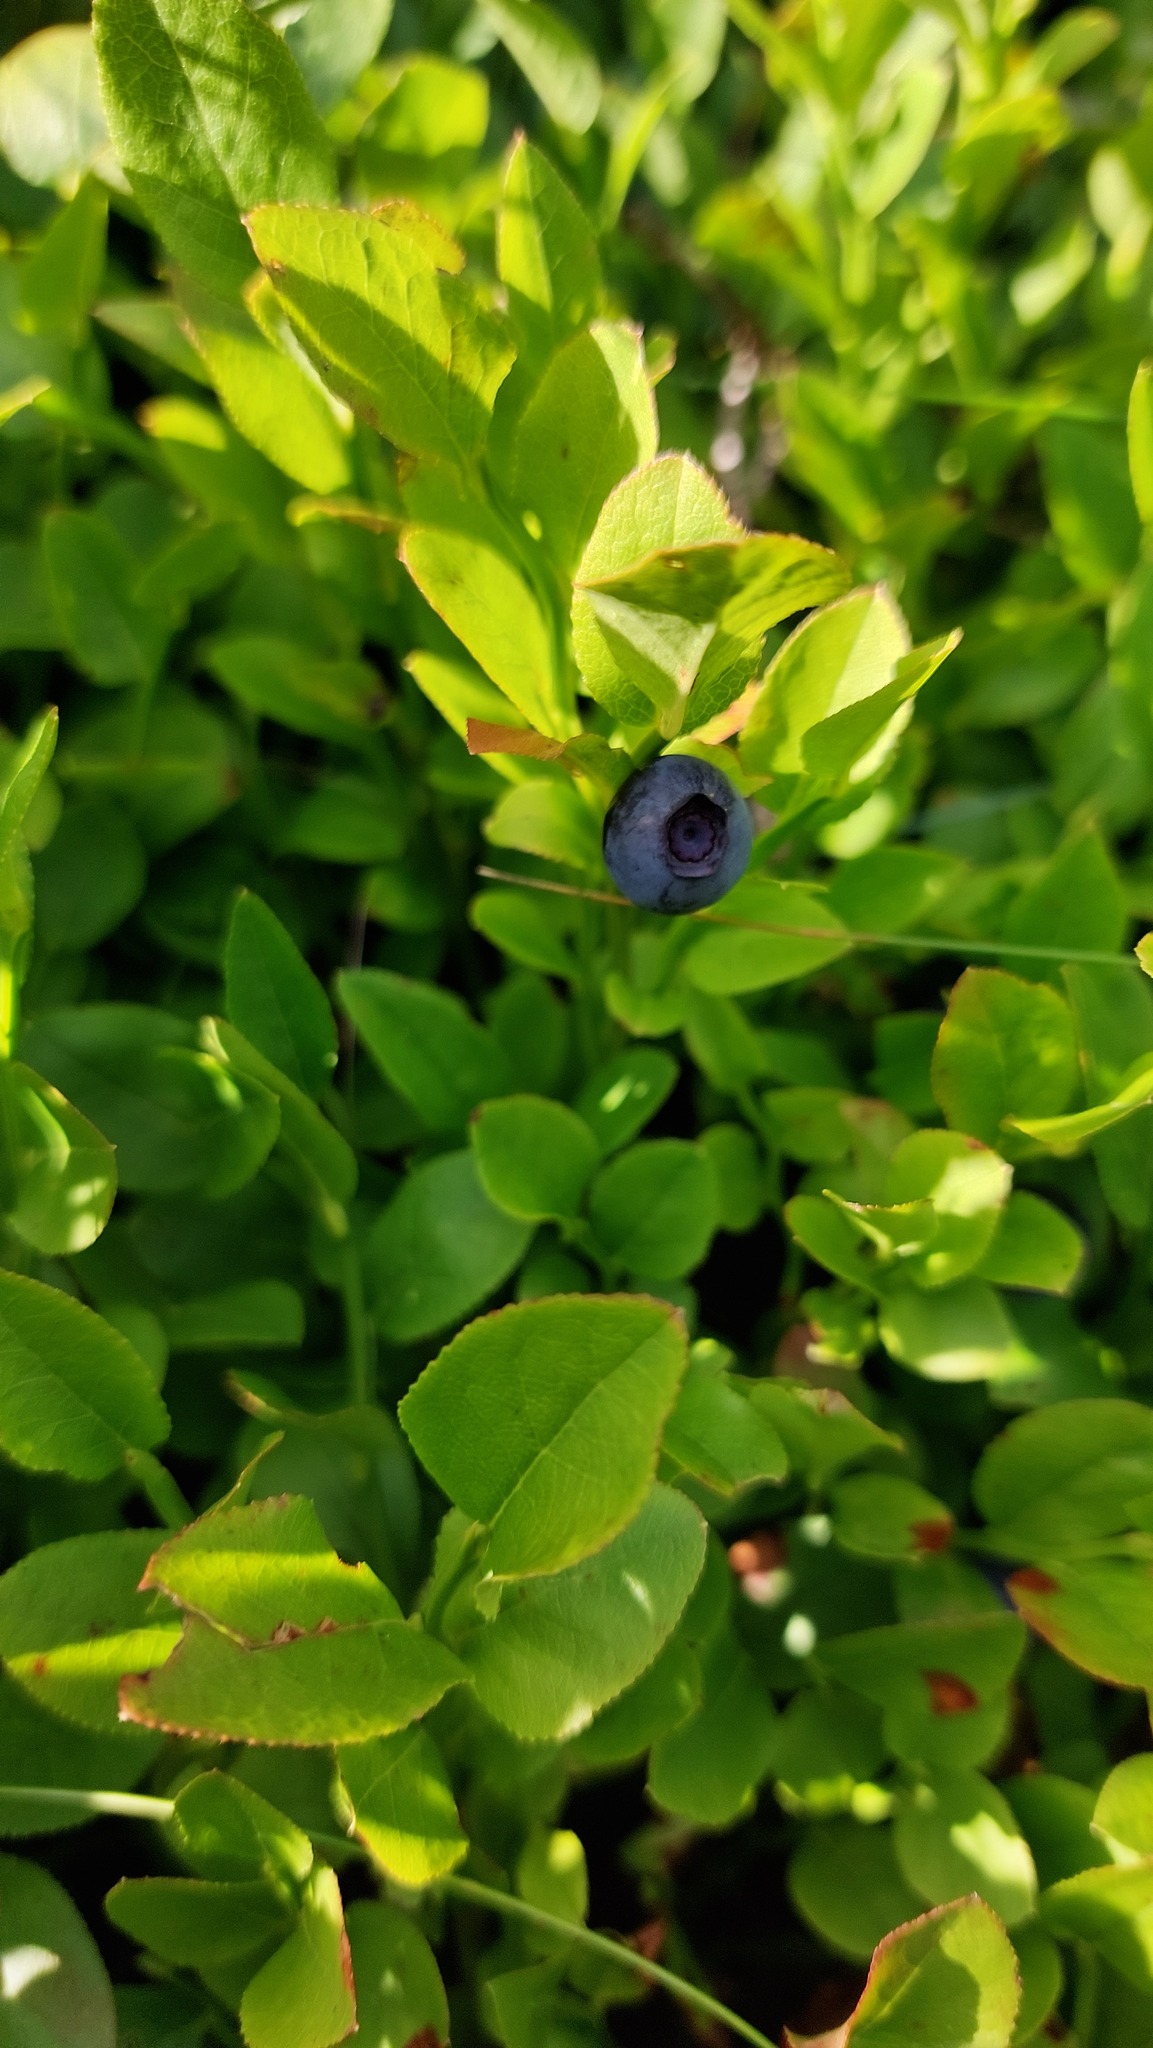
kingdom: Plantae
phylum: Tracheophyta
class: Magnoliopsida
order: Ericales
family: Ericaceae
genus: Vaccinium
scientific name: Vaccinium myrtillus
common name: Bilberry
